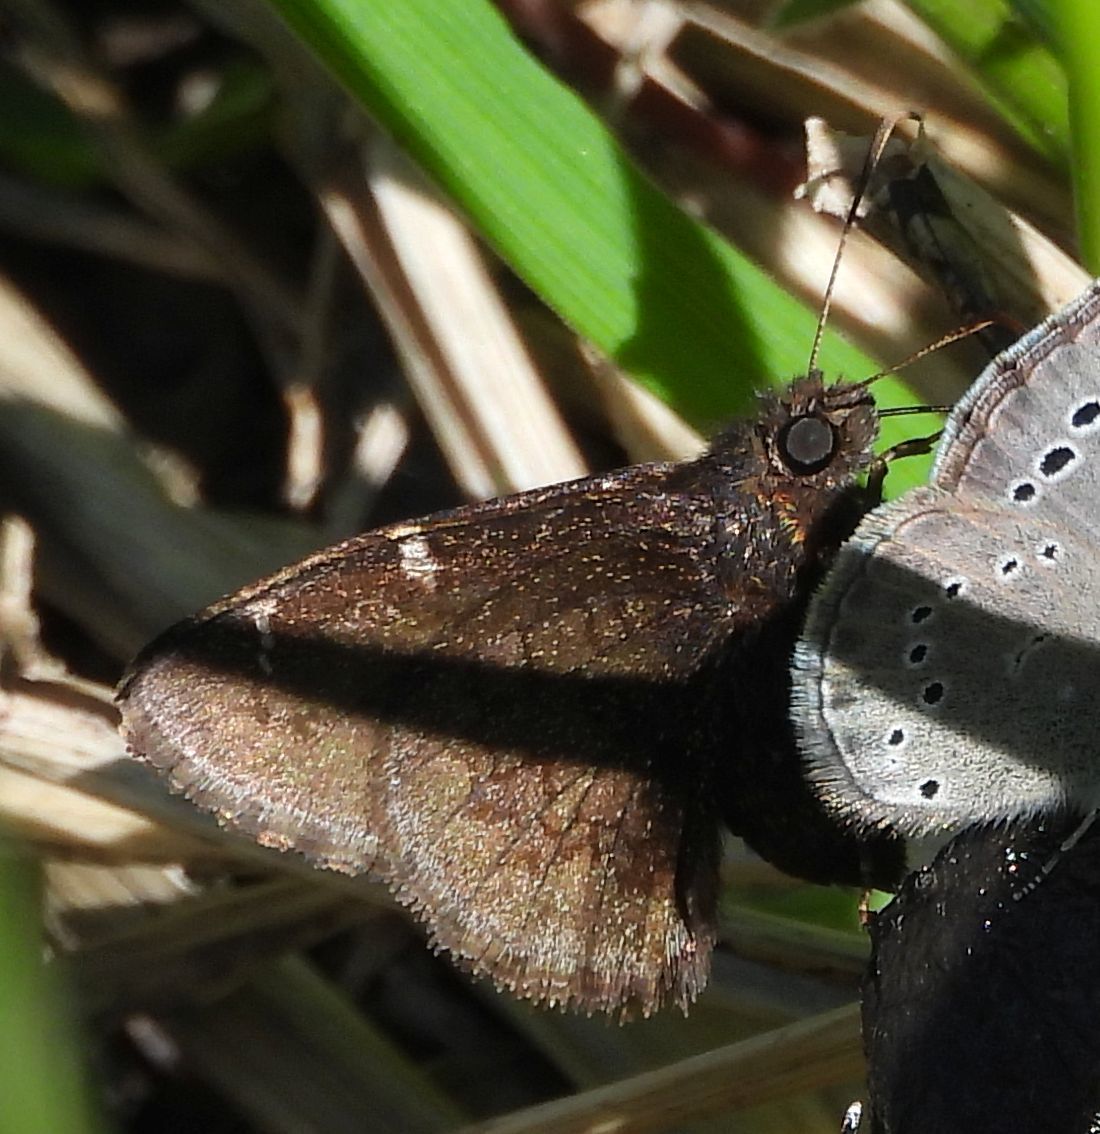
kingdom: Animalia
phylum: Arthropoda
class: Insecta
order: Lepidoptera
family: Hesperiidae
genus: Thorybes
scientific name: Thorybes pylades
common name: Northern cloudywing
